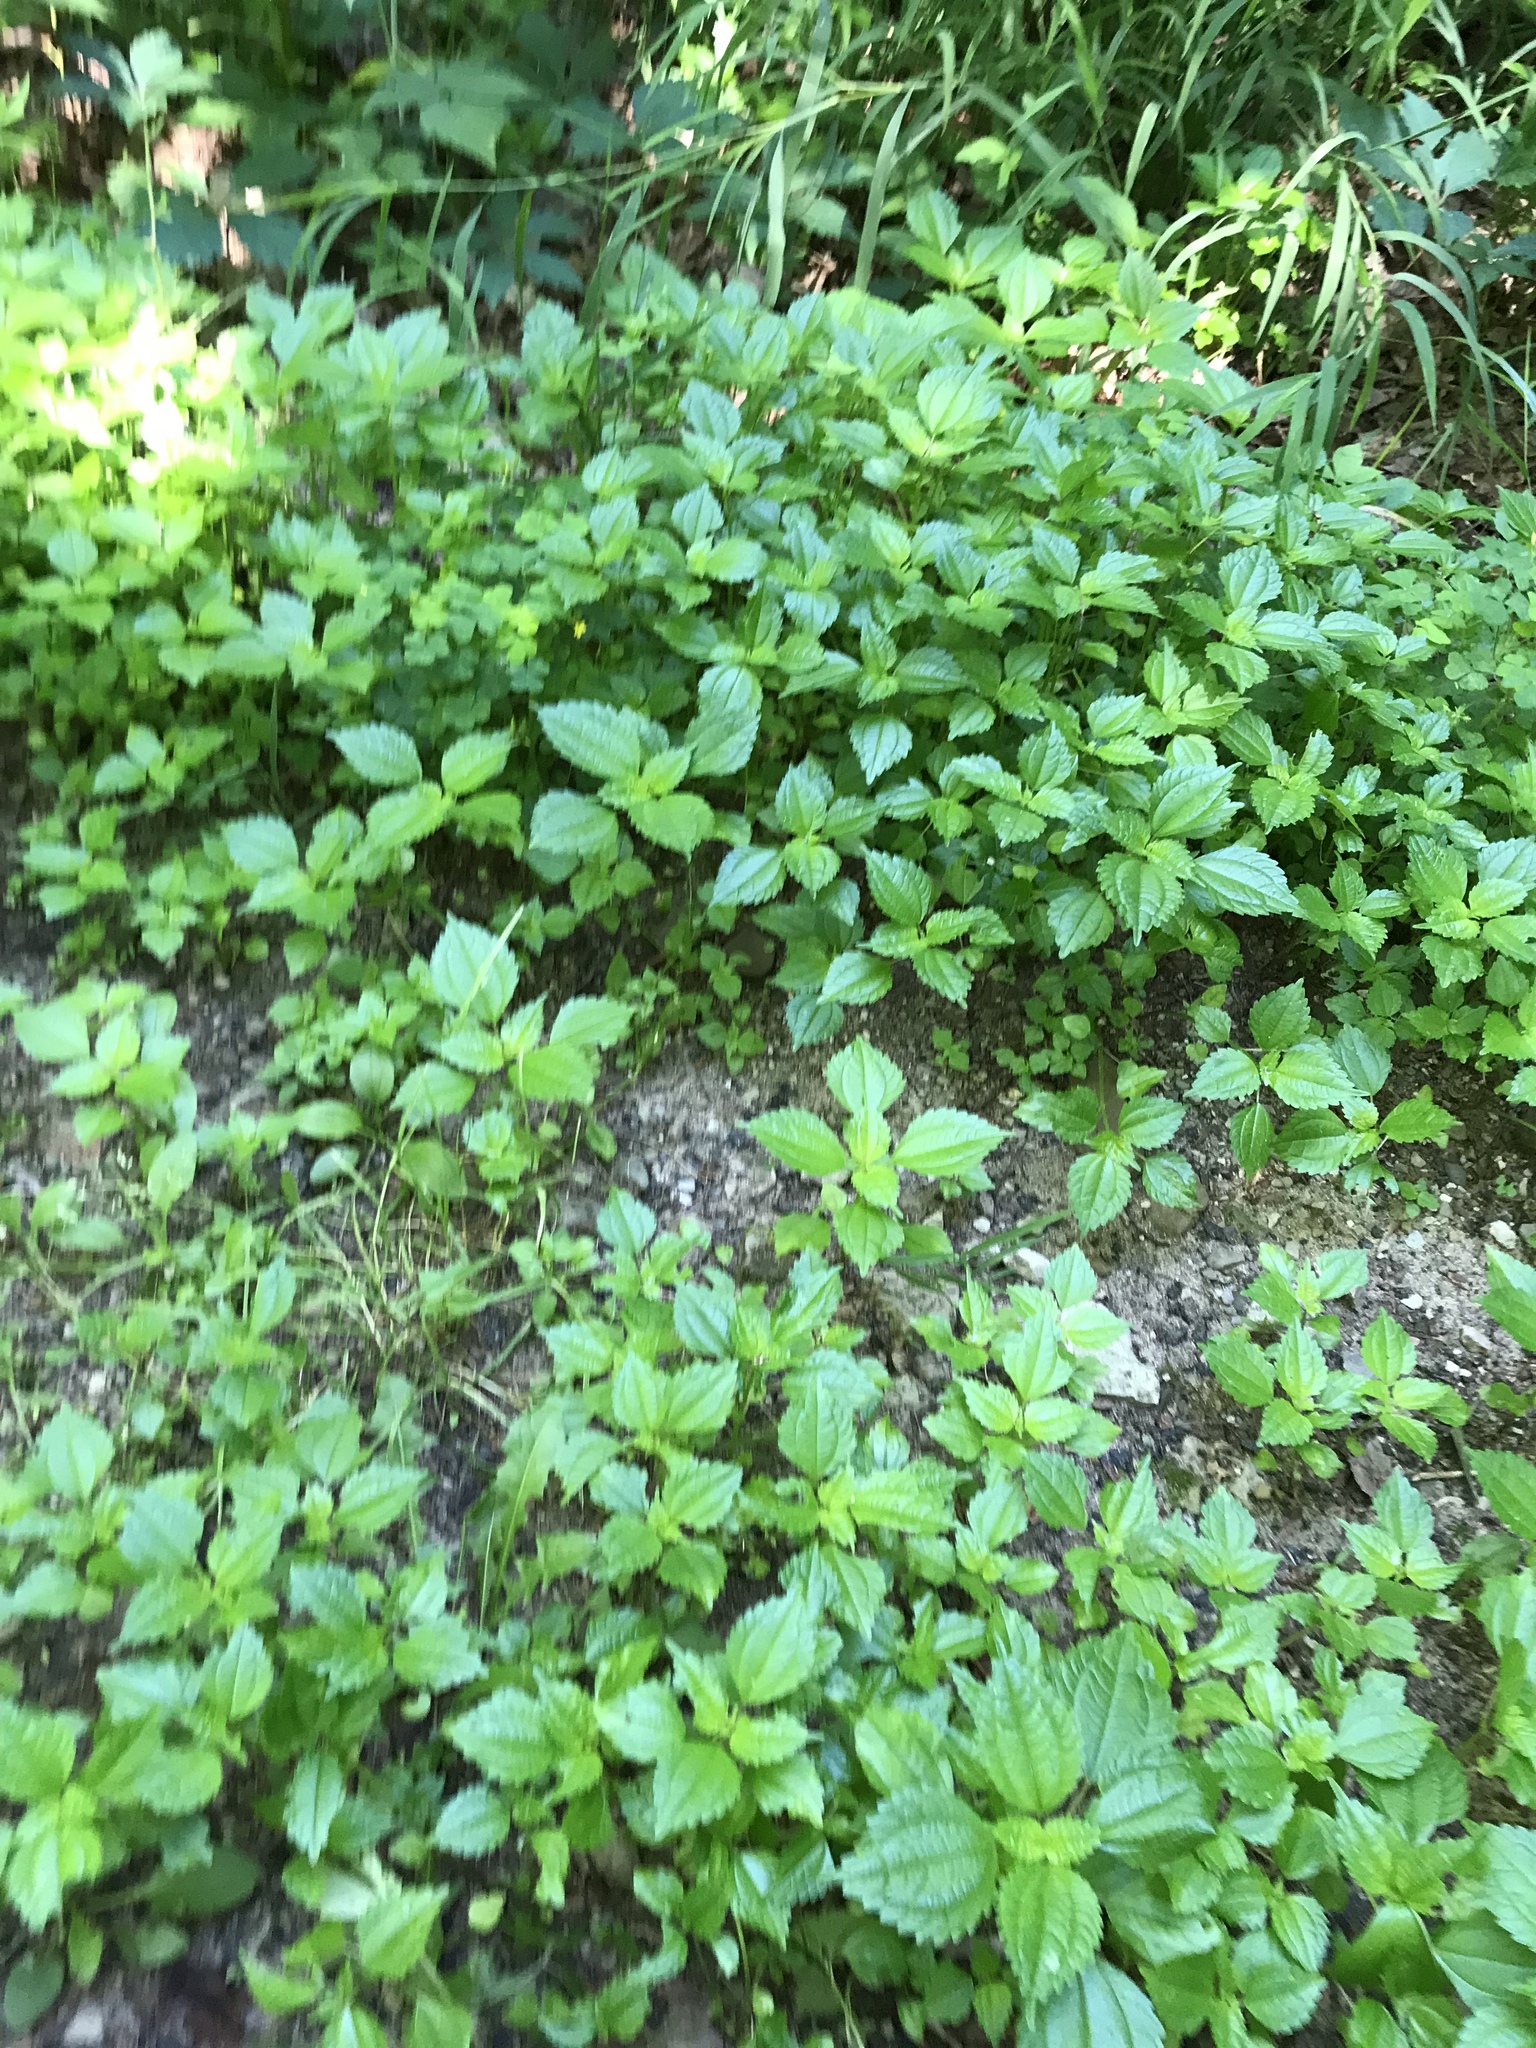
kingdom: Plantae
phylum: Tracheophyta
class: Magnoliopsida
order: Rosales
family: Urticaceae
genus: Pilea
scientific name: Pilea pumila
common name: Clearweed
